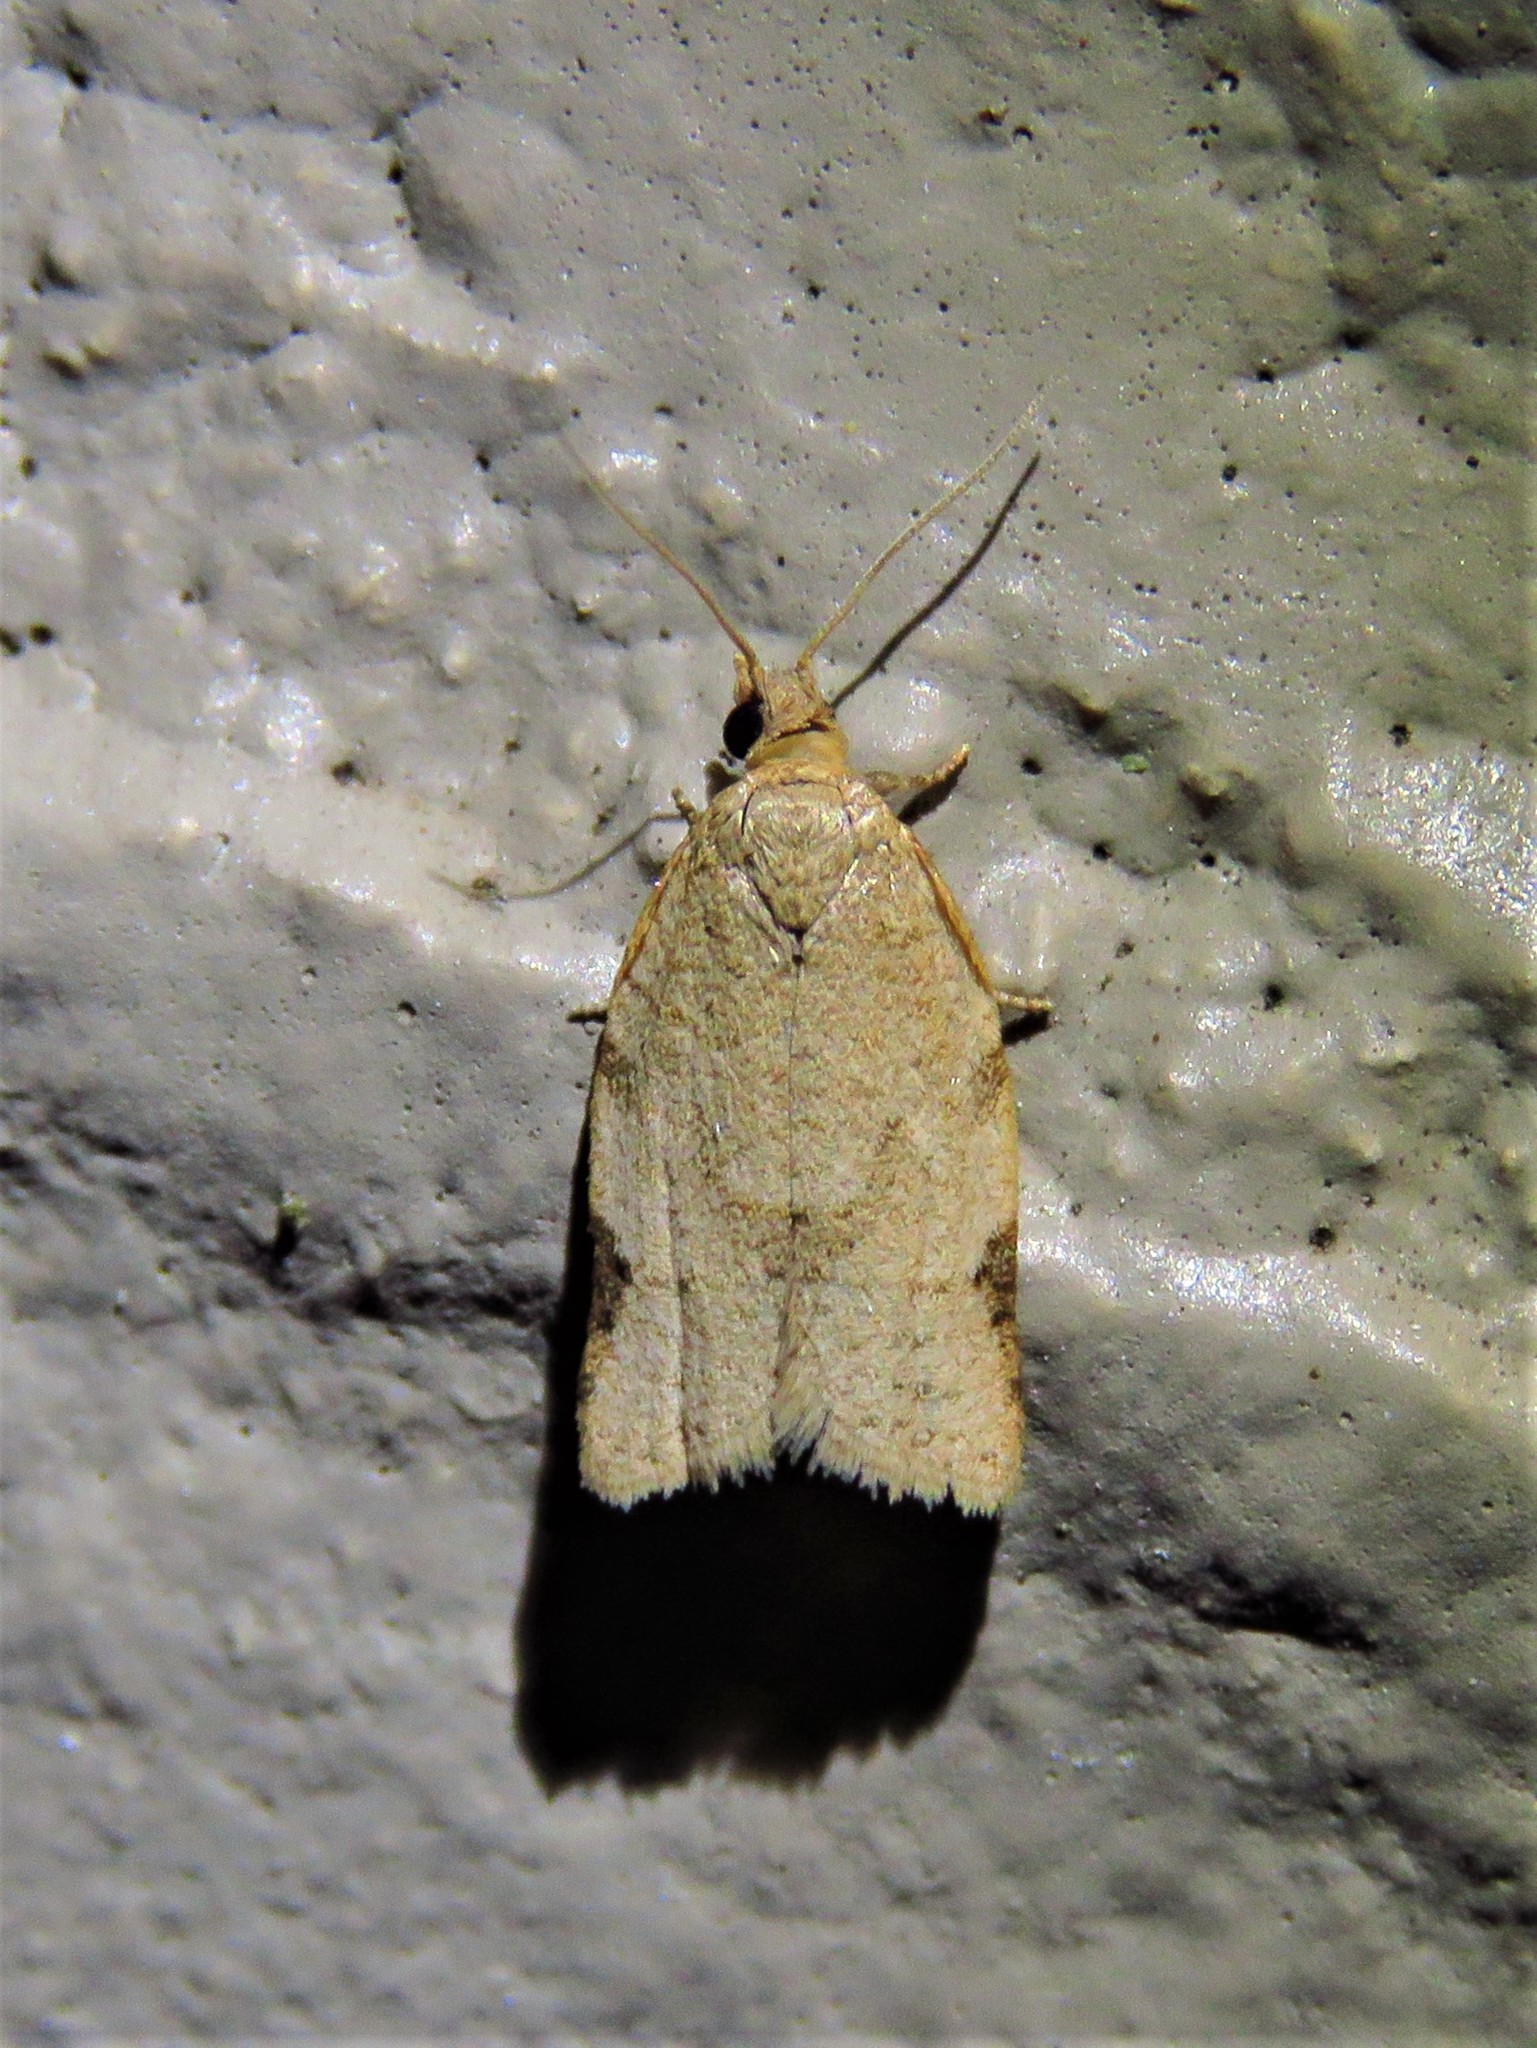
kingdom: Animalia
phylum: Arthropoda
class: Insecta
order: Lepidoptera
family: Tortricidae
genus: Clepsis
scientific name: Clepsis virescana
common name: Greenish apple moth
